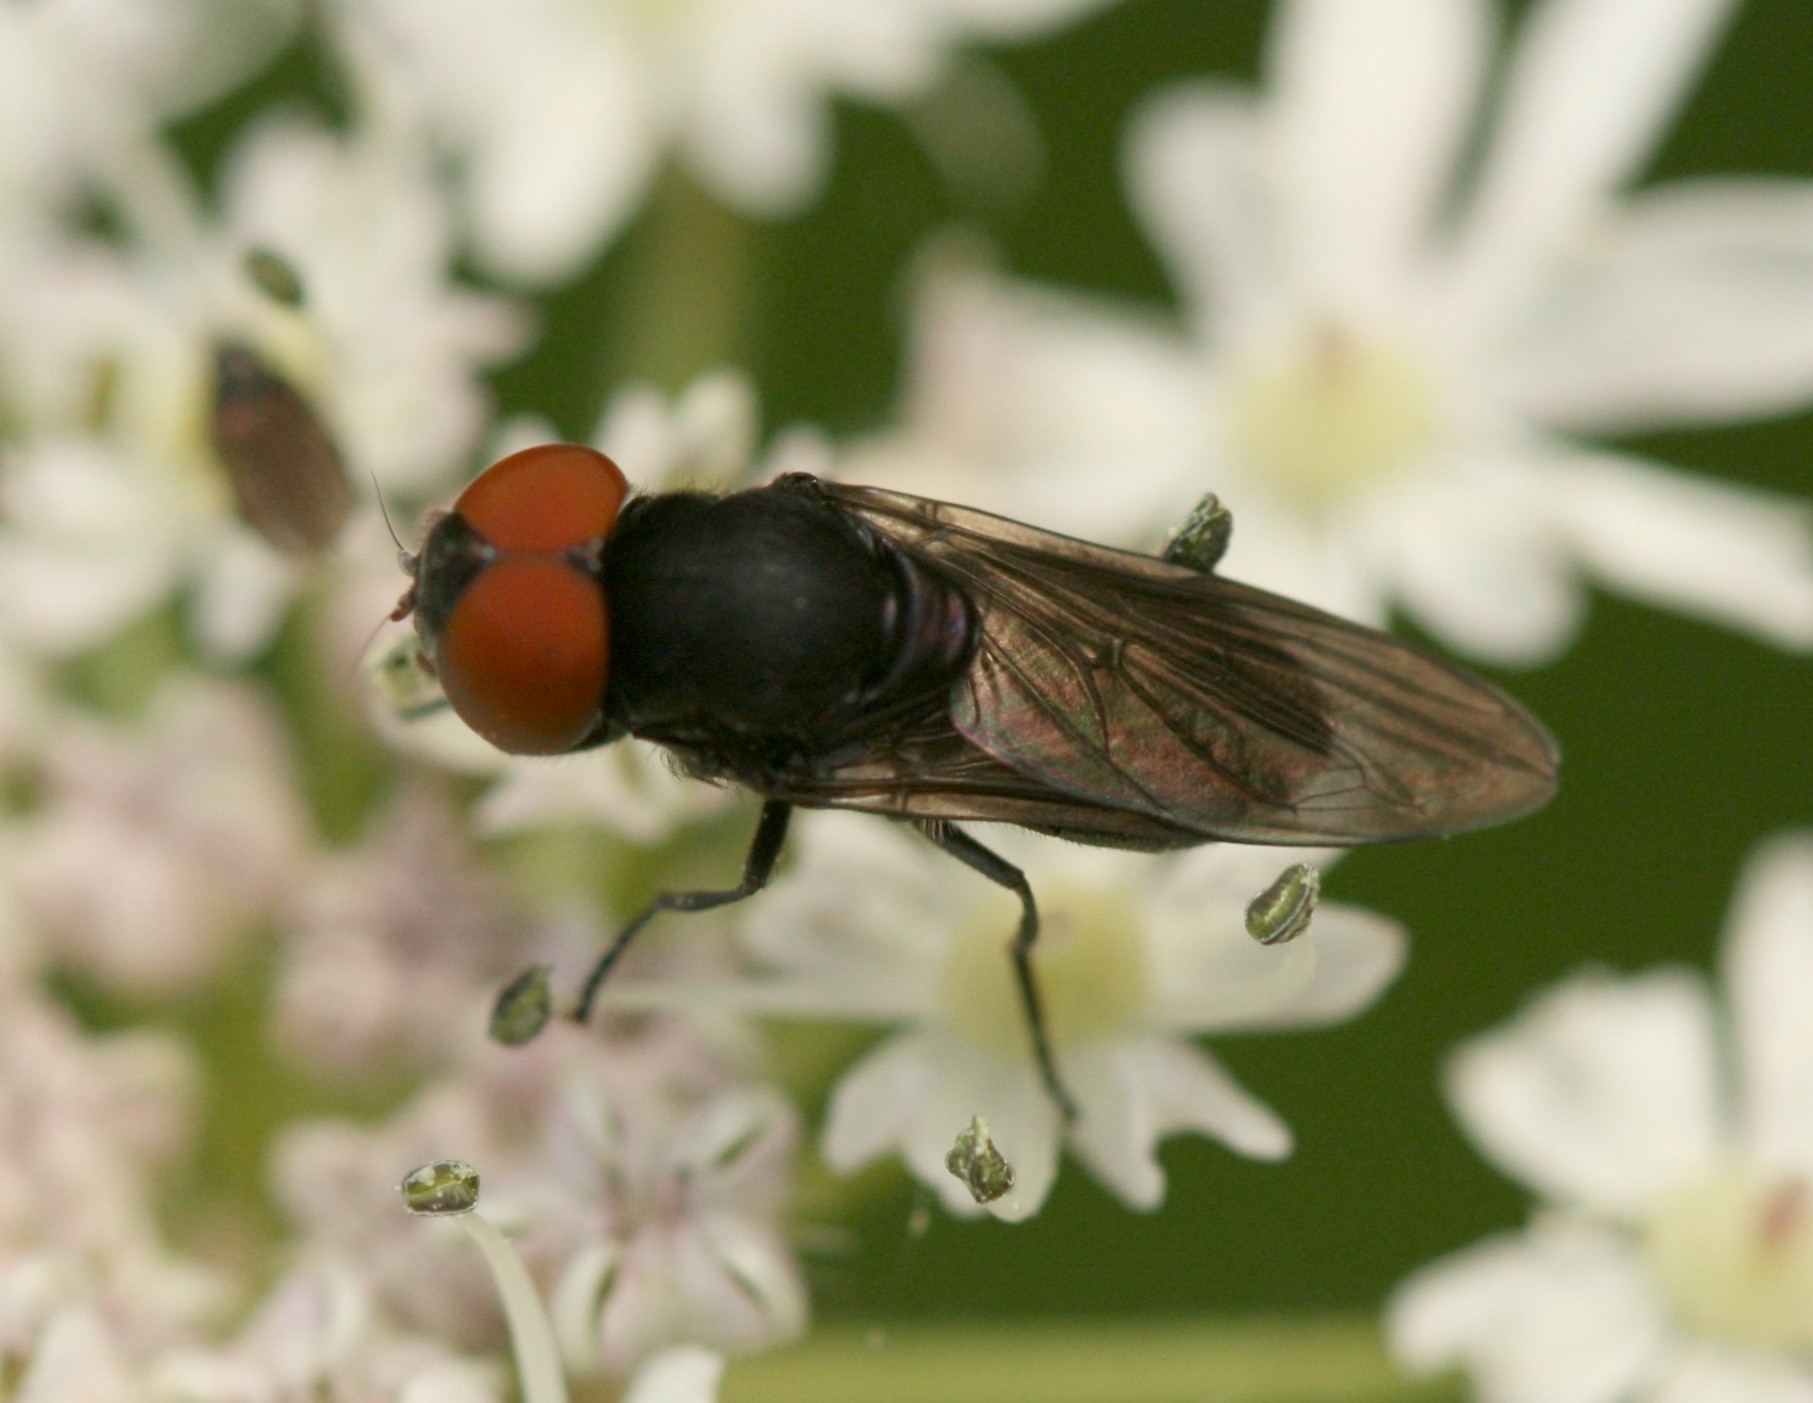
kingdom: Animalia
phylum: Arthropoda
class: Insecta
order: Diptera
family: Syrphidae
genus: Chrysogaster
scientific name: Chrysogaster solstitialis
